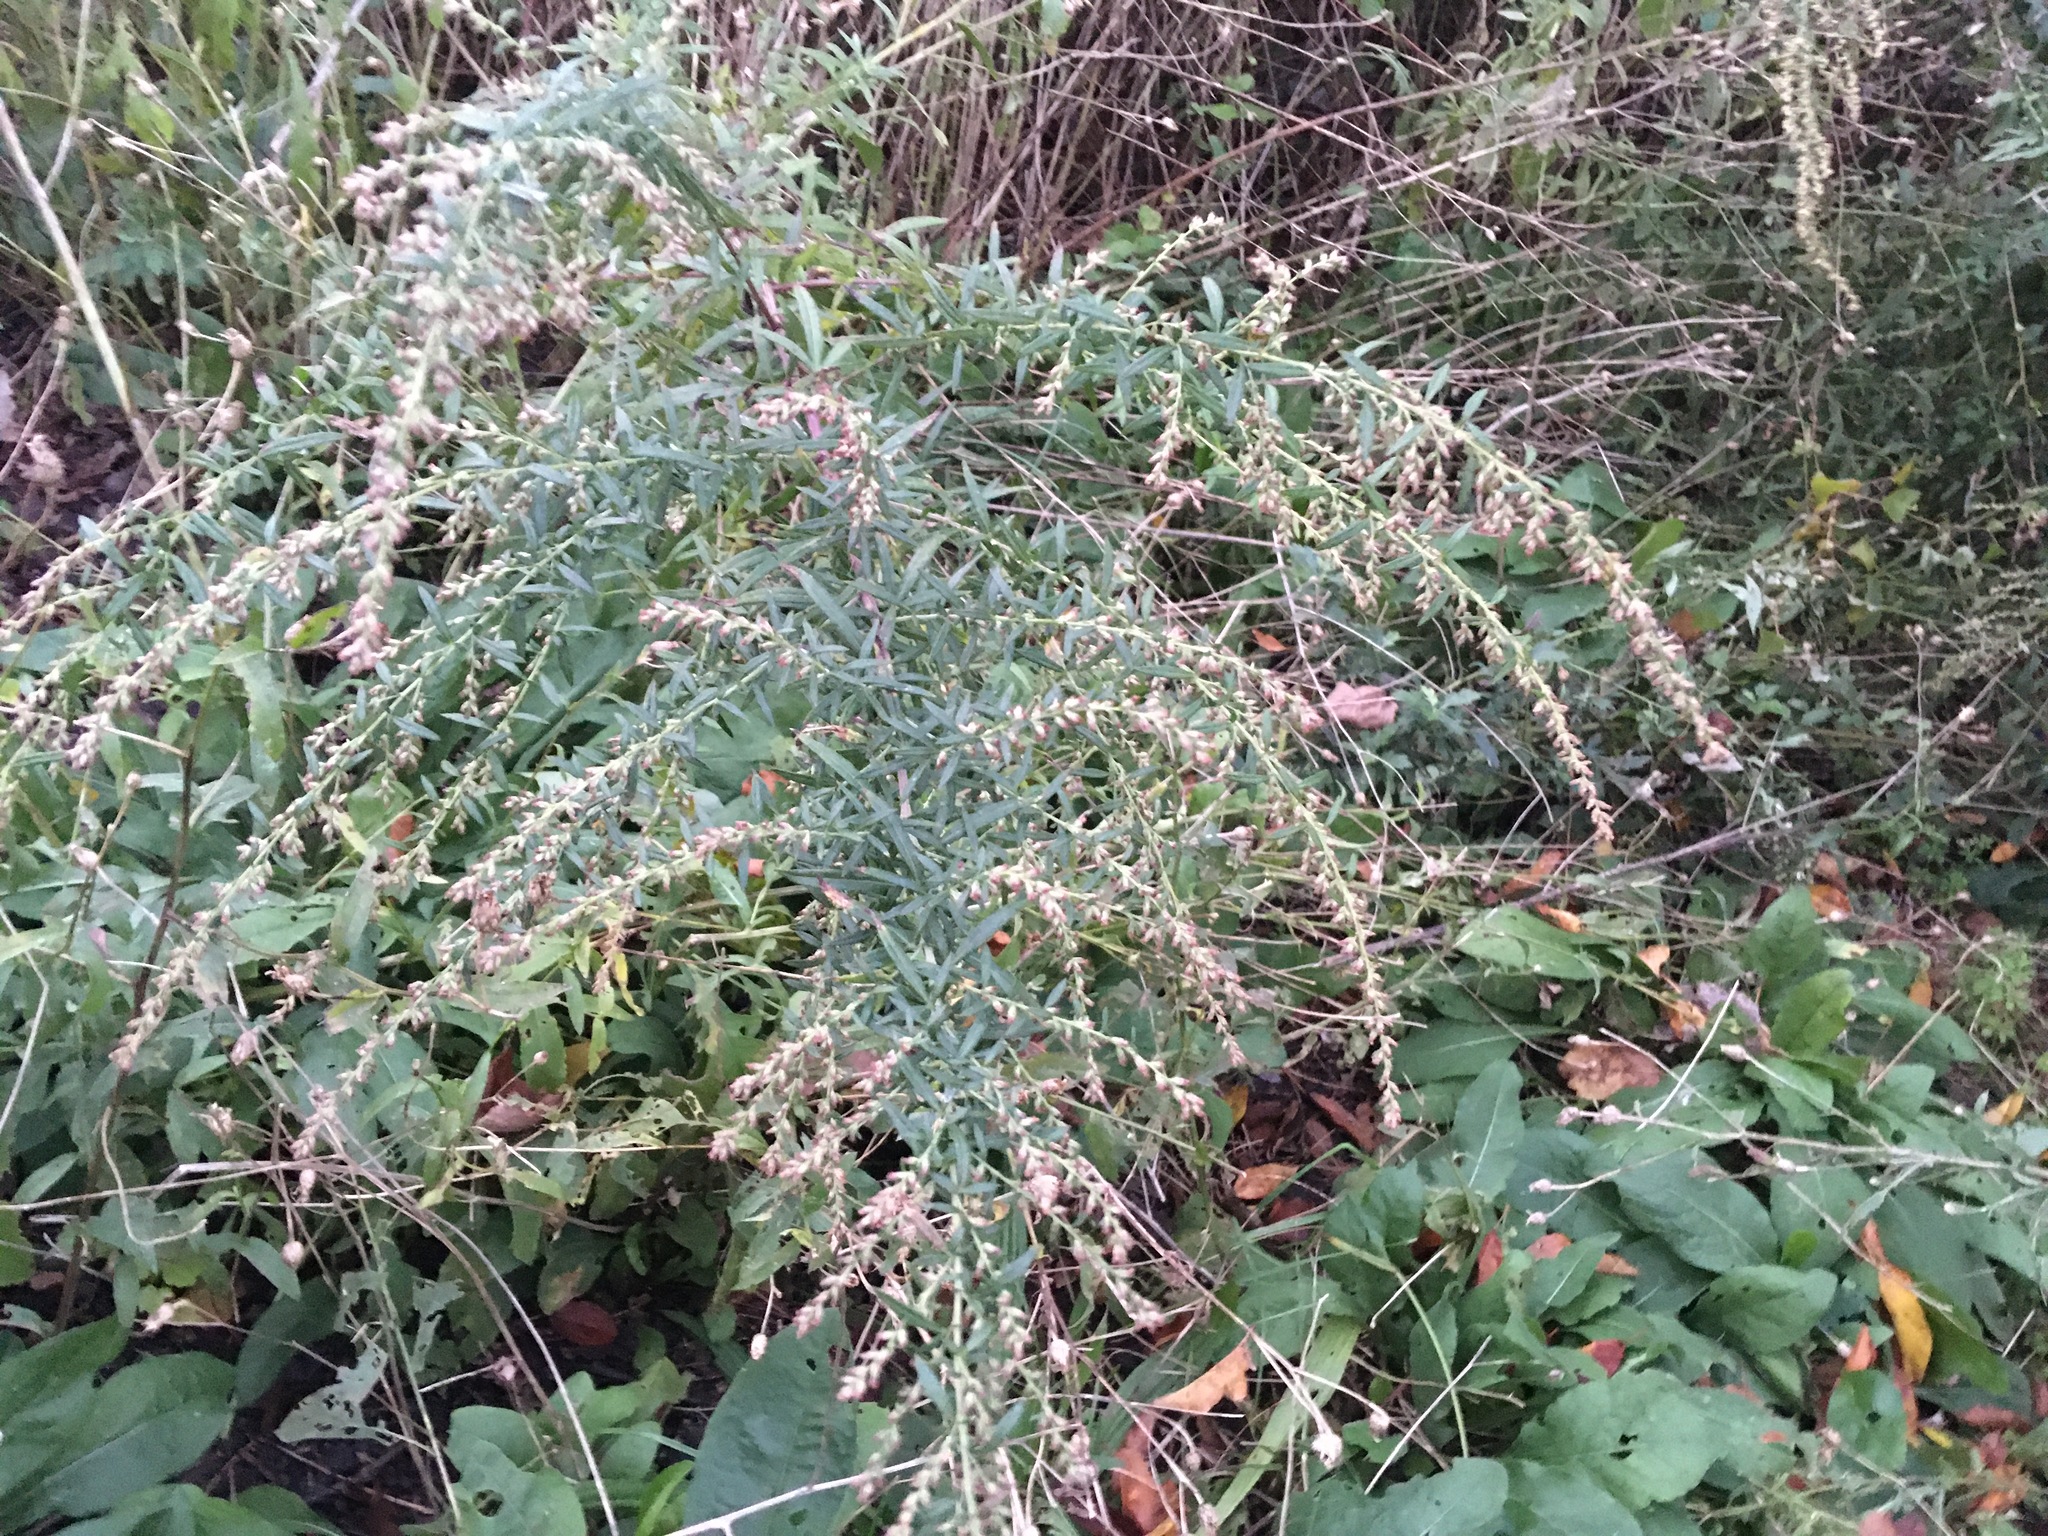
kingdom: Plantae
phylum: Tracheophyta
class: Magnoliopsida
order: Asterales
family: Asteraceae
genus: Artemisia
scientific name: Artemisia vulgaris
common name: Mugwort
